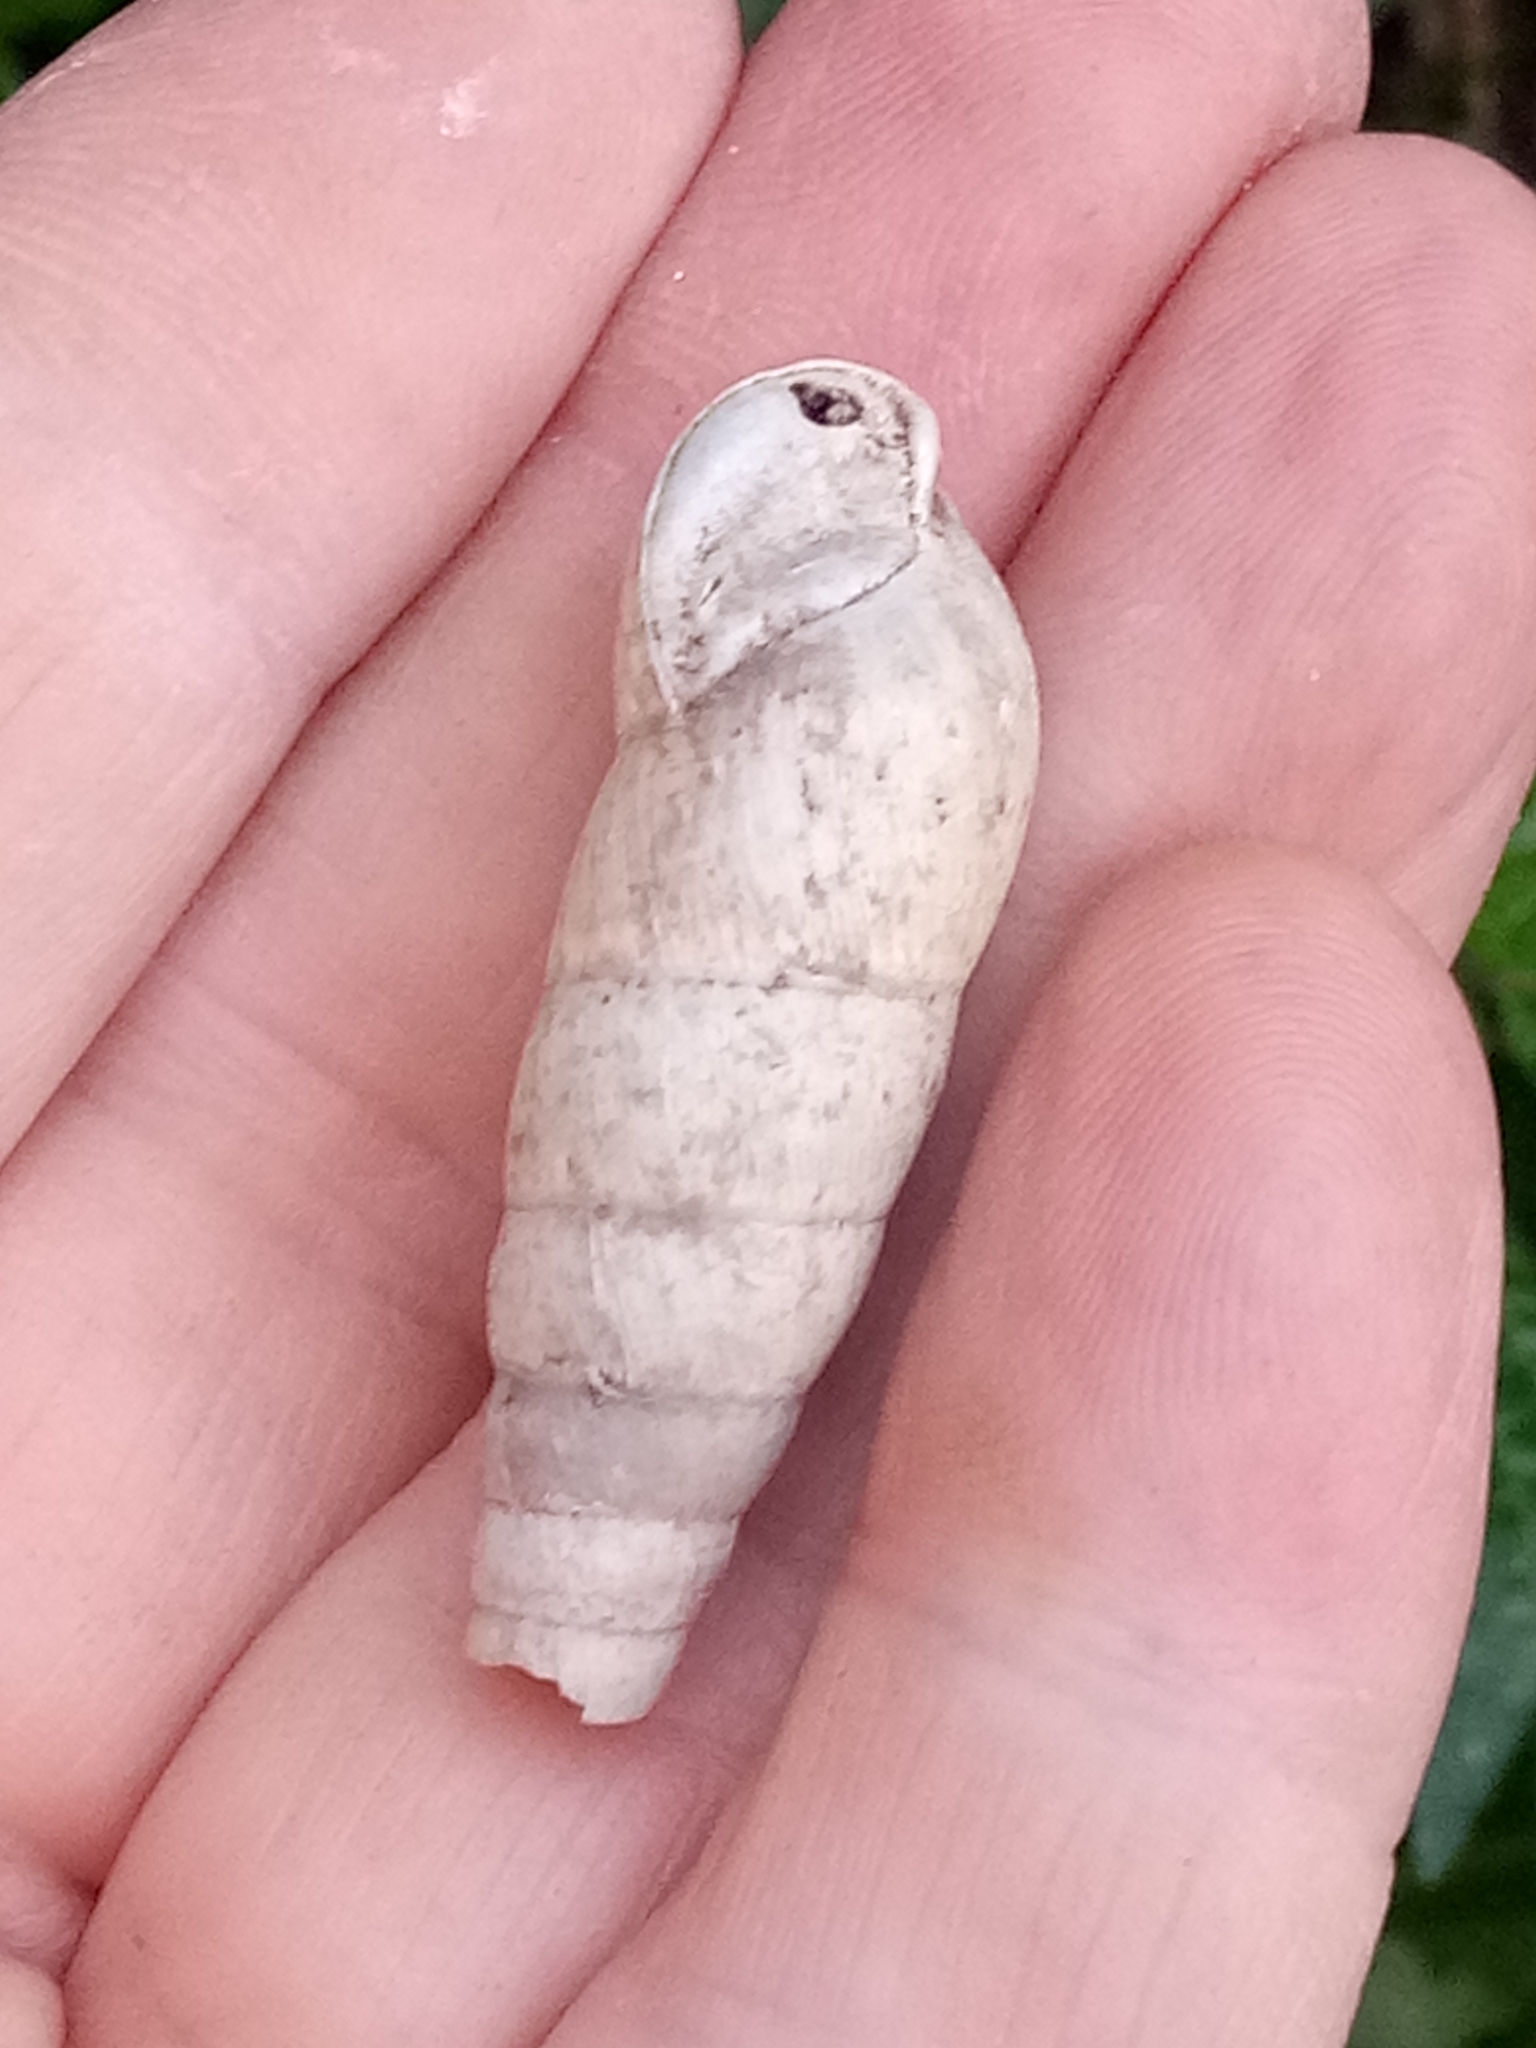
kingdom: Animalia
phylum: Mollusca
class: Gastropoda
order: Stylommatophora
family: Achatinidae
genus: Rumina
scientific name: Rumina decollata
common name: Decollate snail
